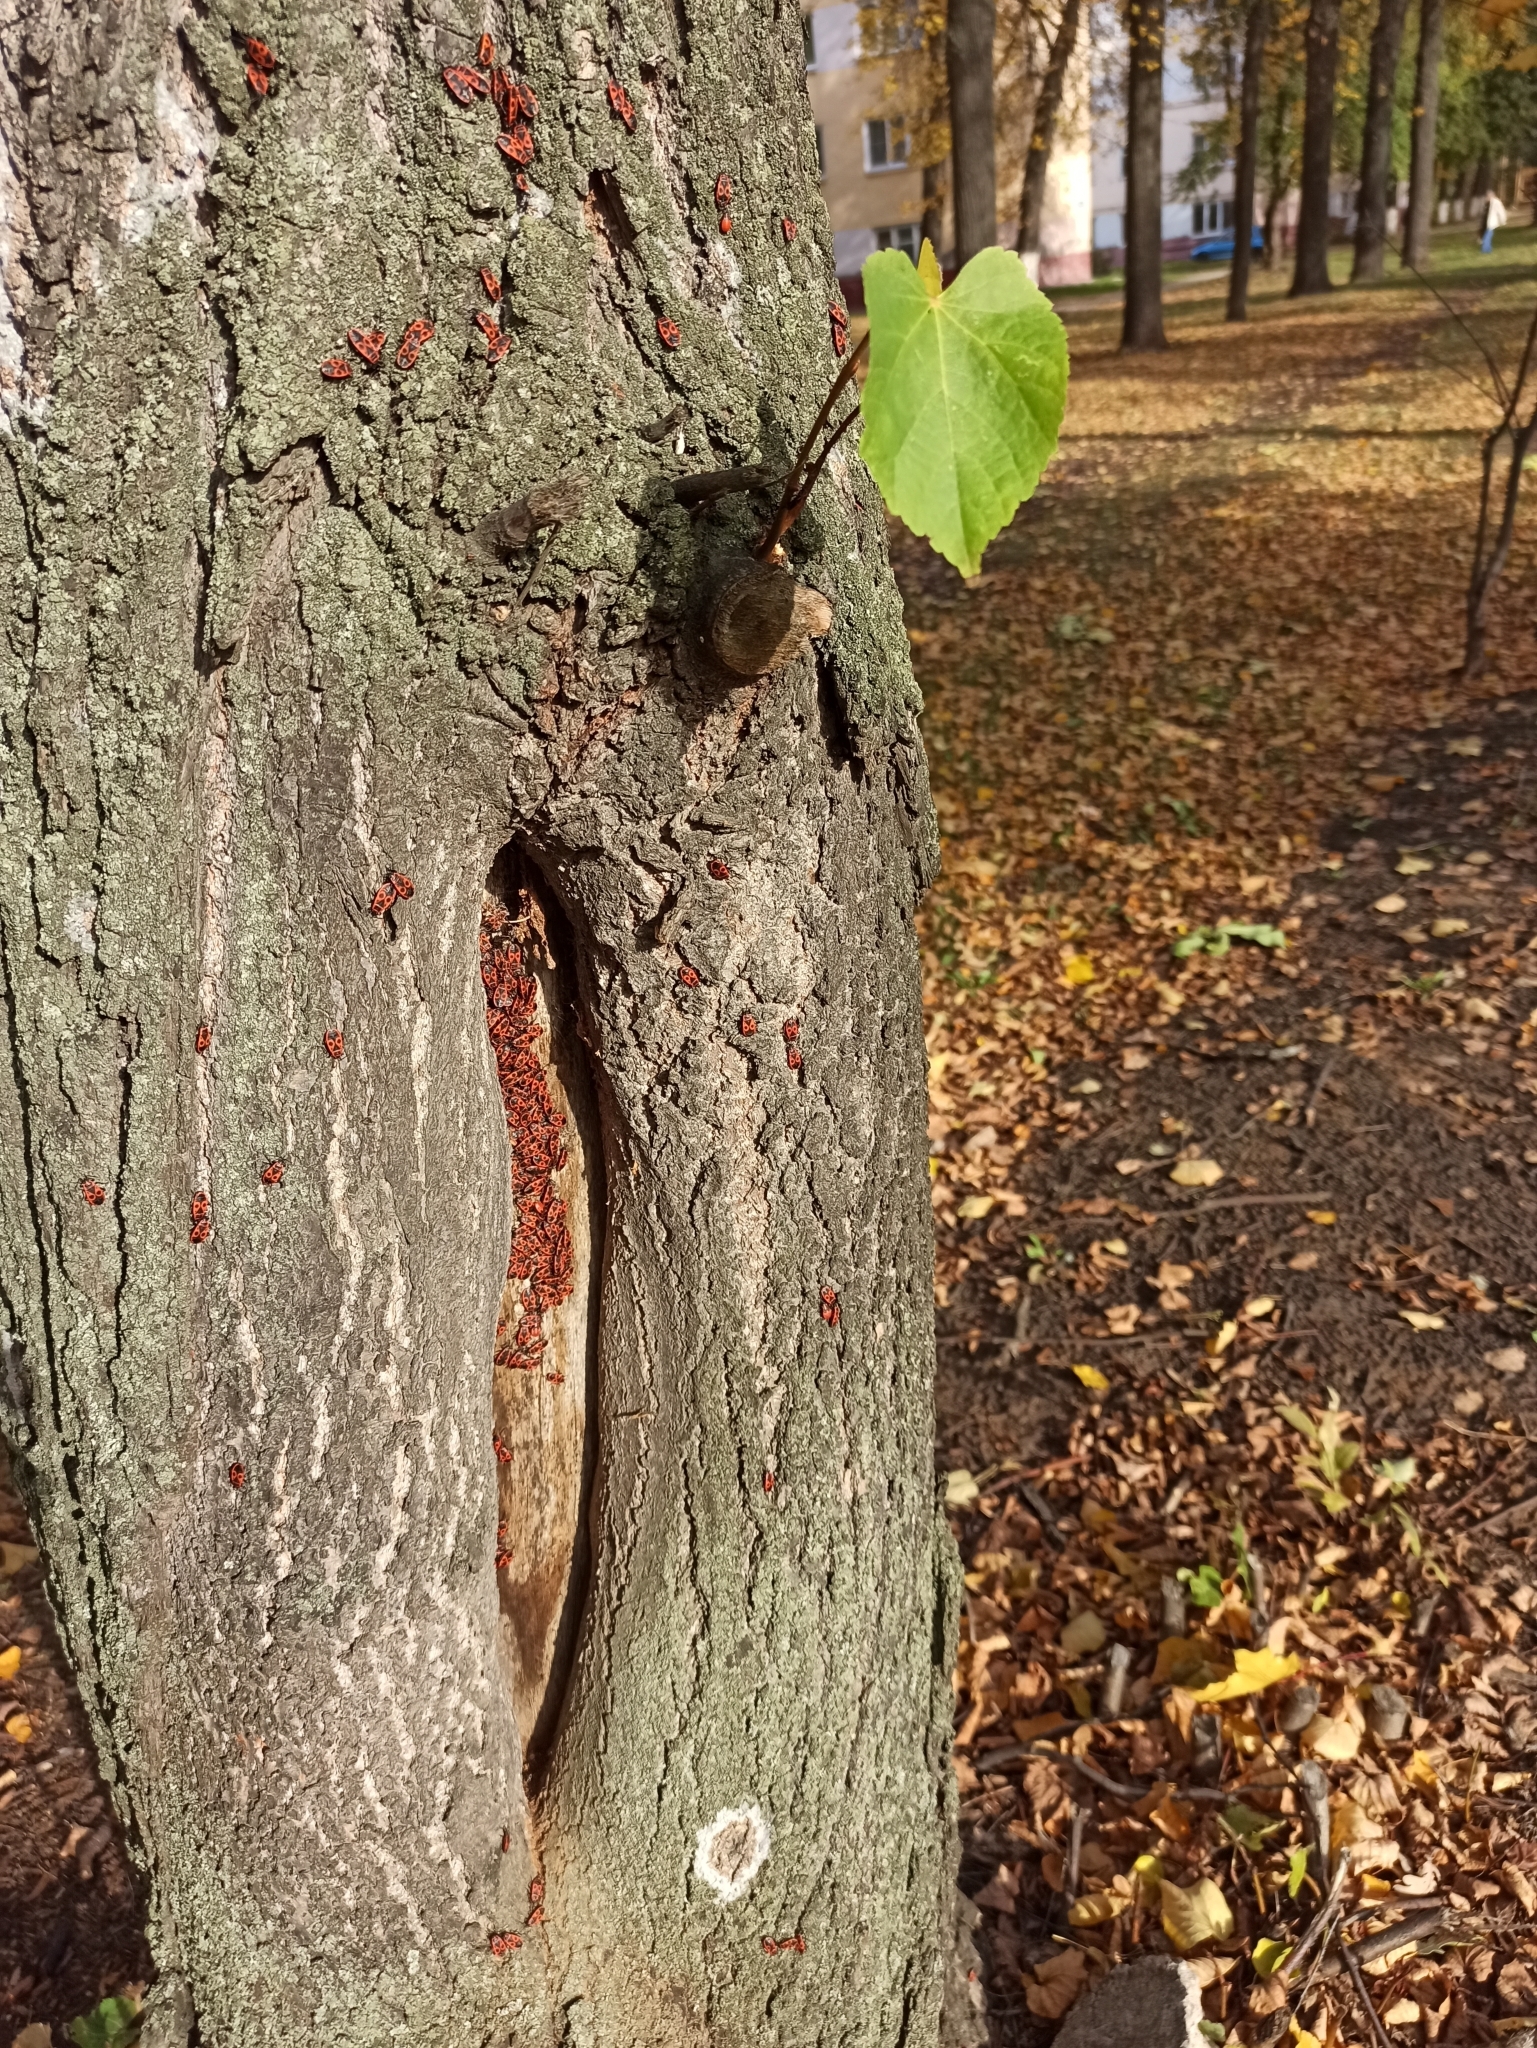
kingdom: Animalia
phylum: Arthropoda
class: Insecta
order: Hemiptera
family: Pyrrhocoridae
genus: Pyrrhocoris
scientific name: Pyrrhocoris apterus
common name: Firebug
